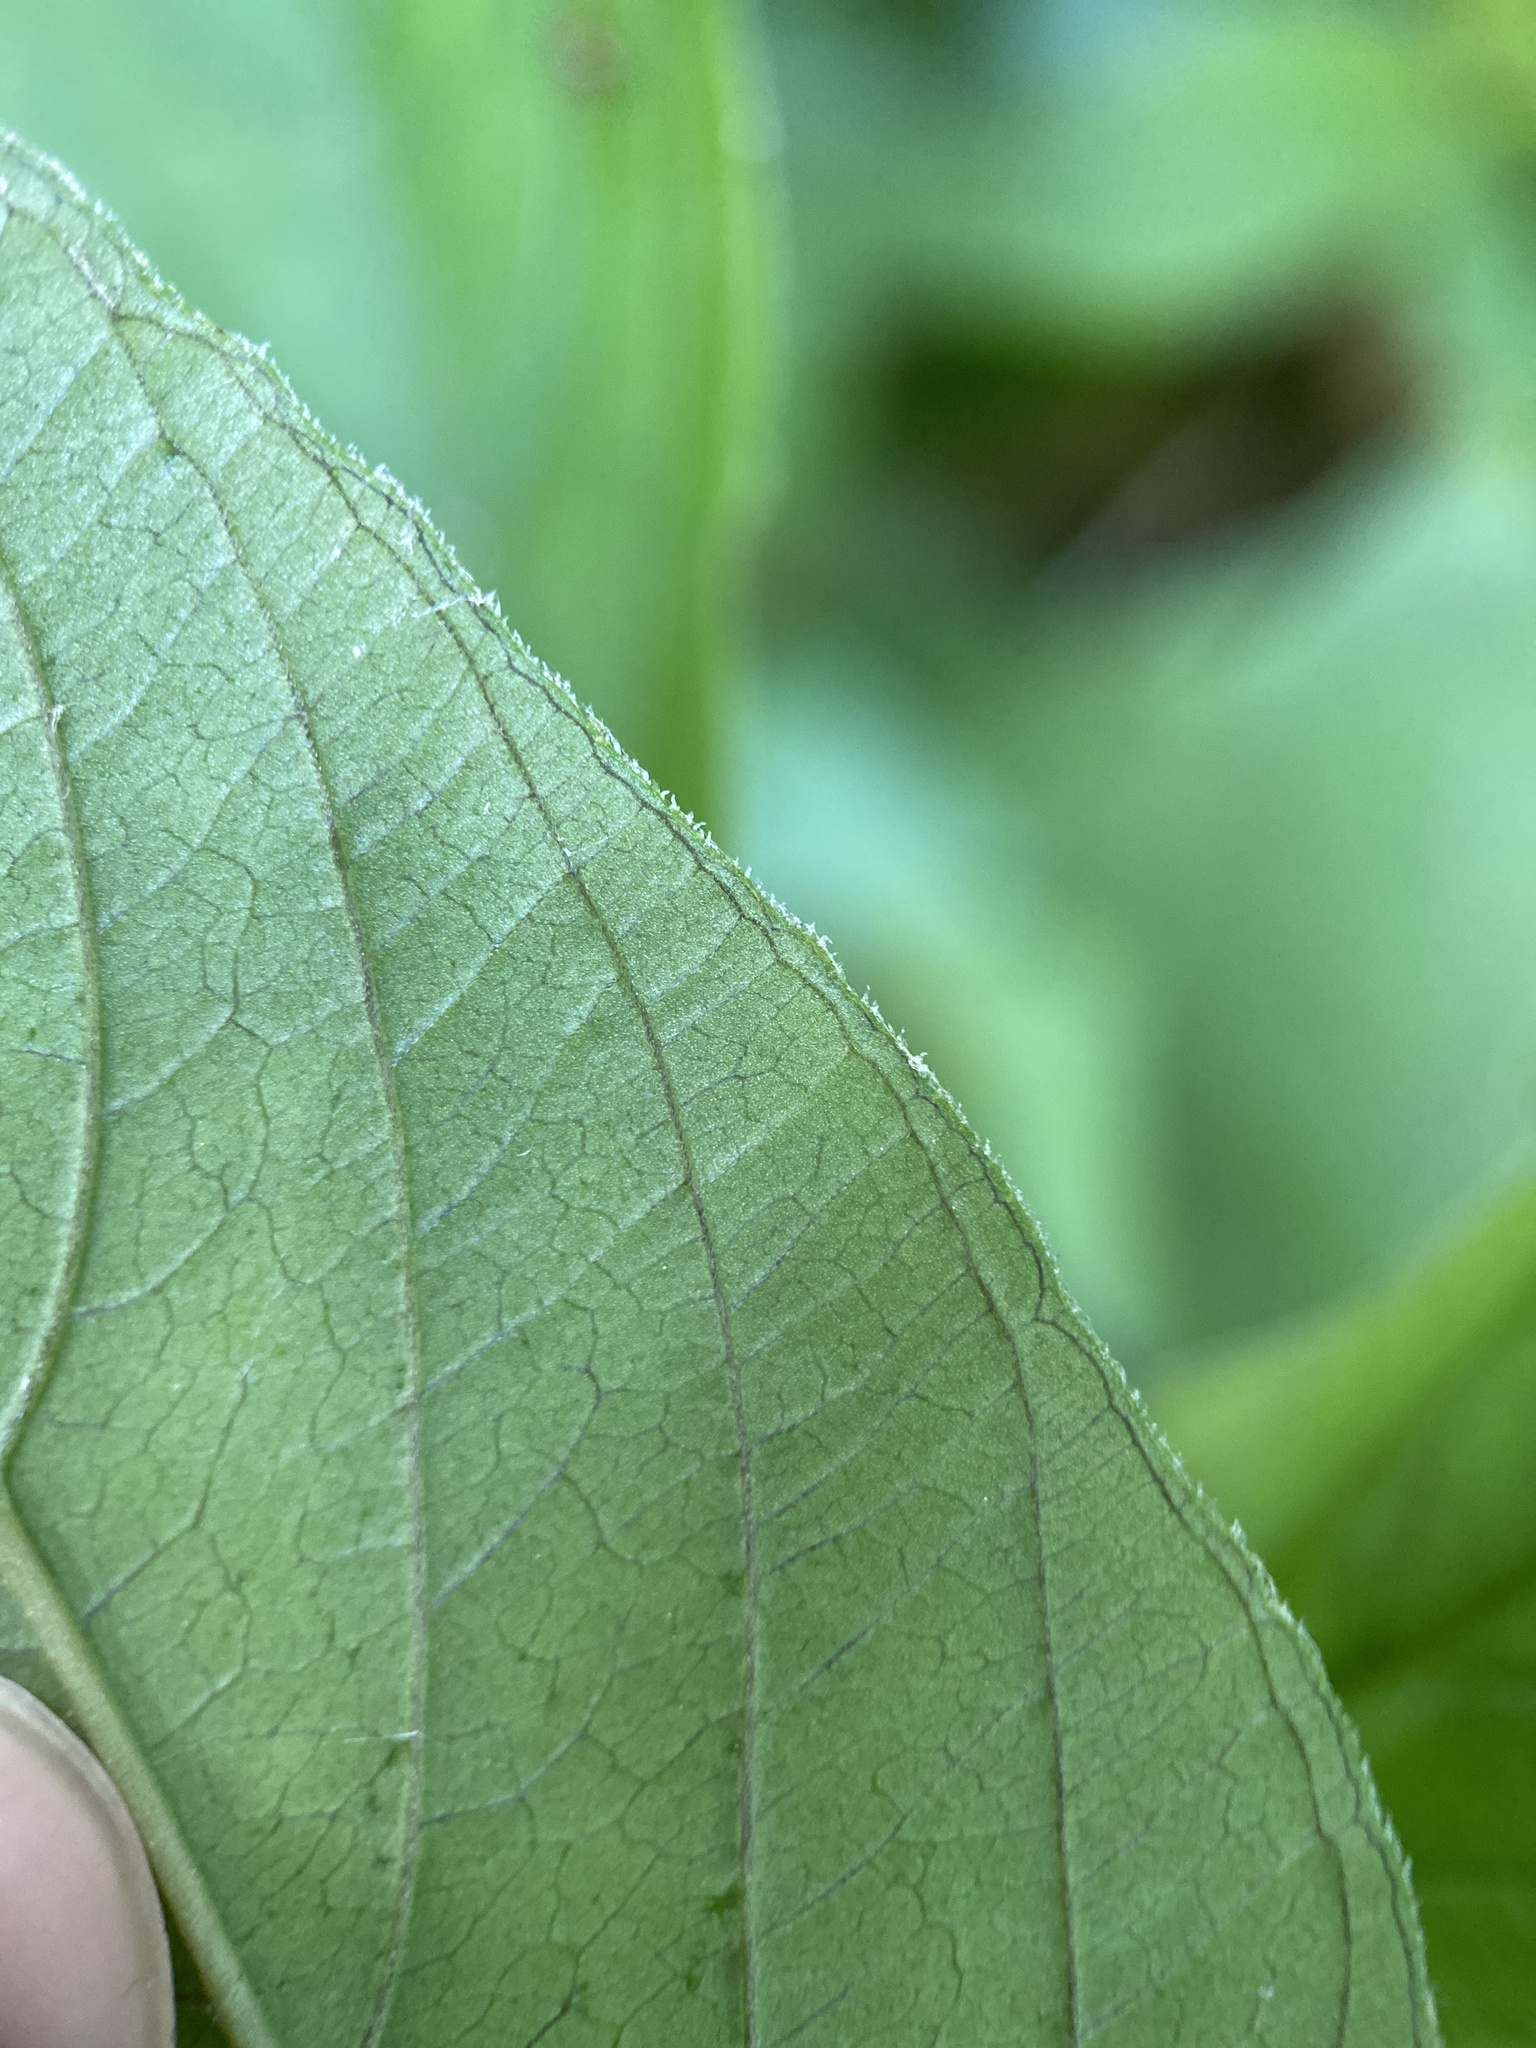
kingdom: Plantae
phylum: Tracheophyta
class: Magnoliopsida
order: Ericales
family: Primulaceae
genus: Lysimachia
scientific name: Lysimachia ciliata
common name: Fringed loosestrife
